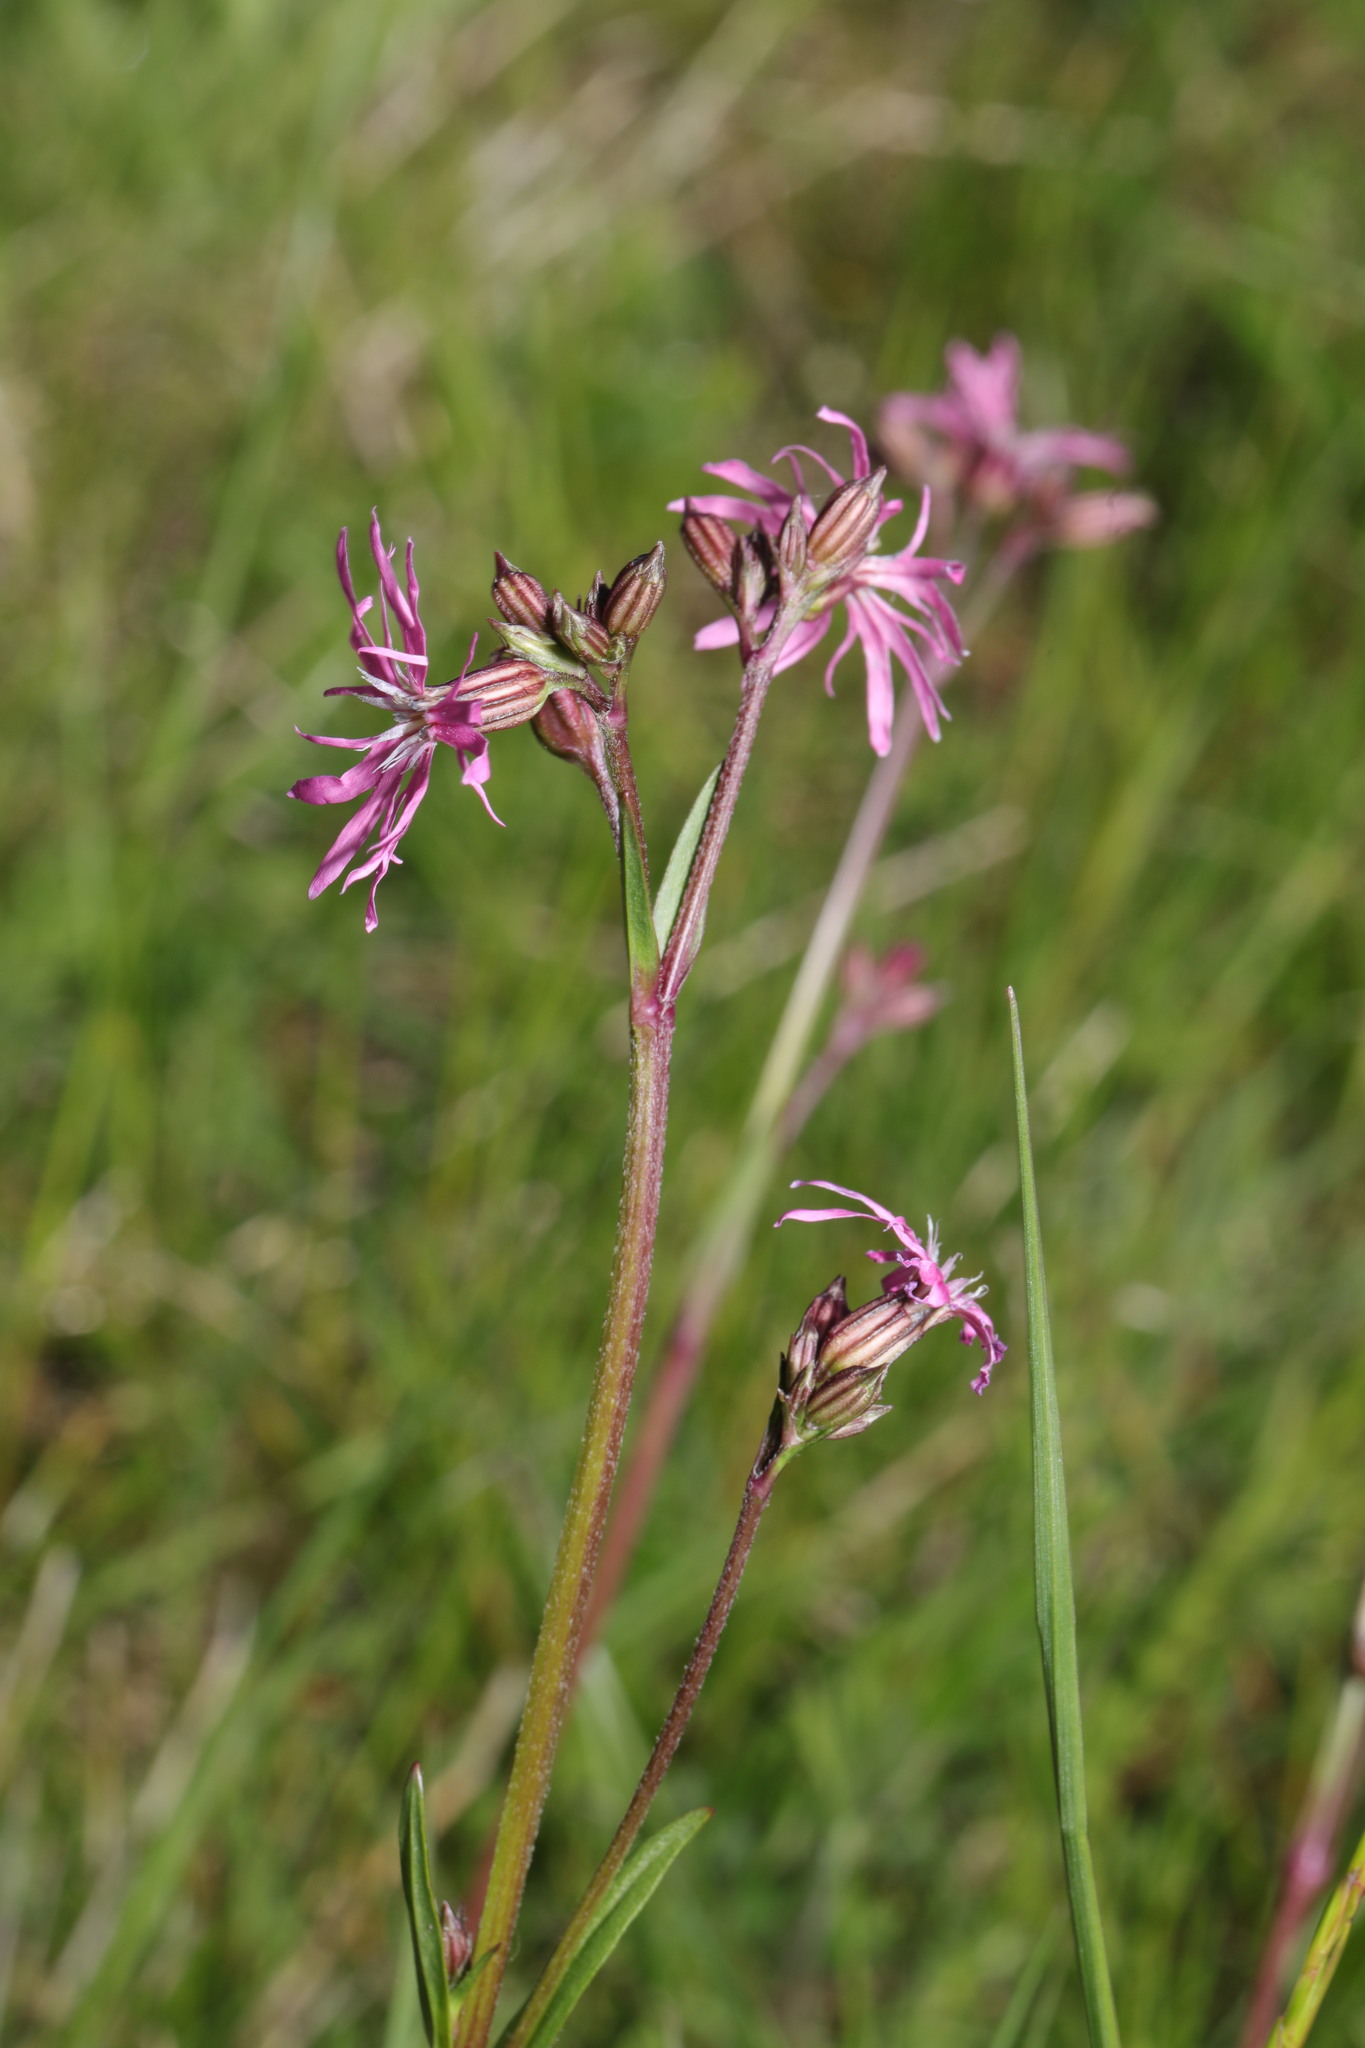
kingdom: Plantae
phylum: Tracheophyta
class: Magnoliopsida
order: Caryophyllales
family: Caryophyllaceae
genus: Silene
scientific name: Silene flos-cuculi
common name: Ragged-robin
